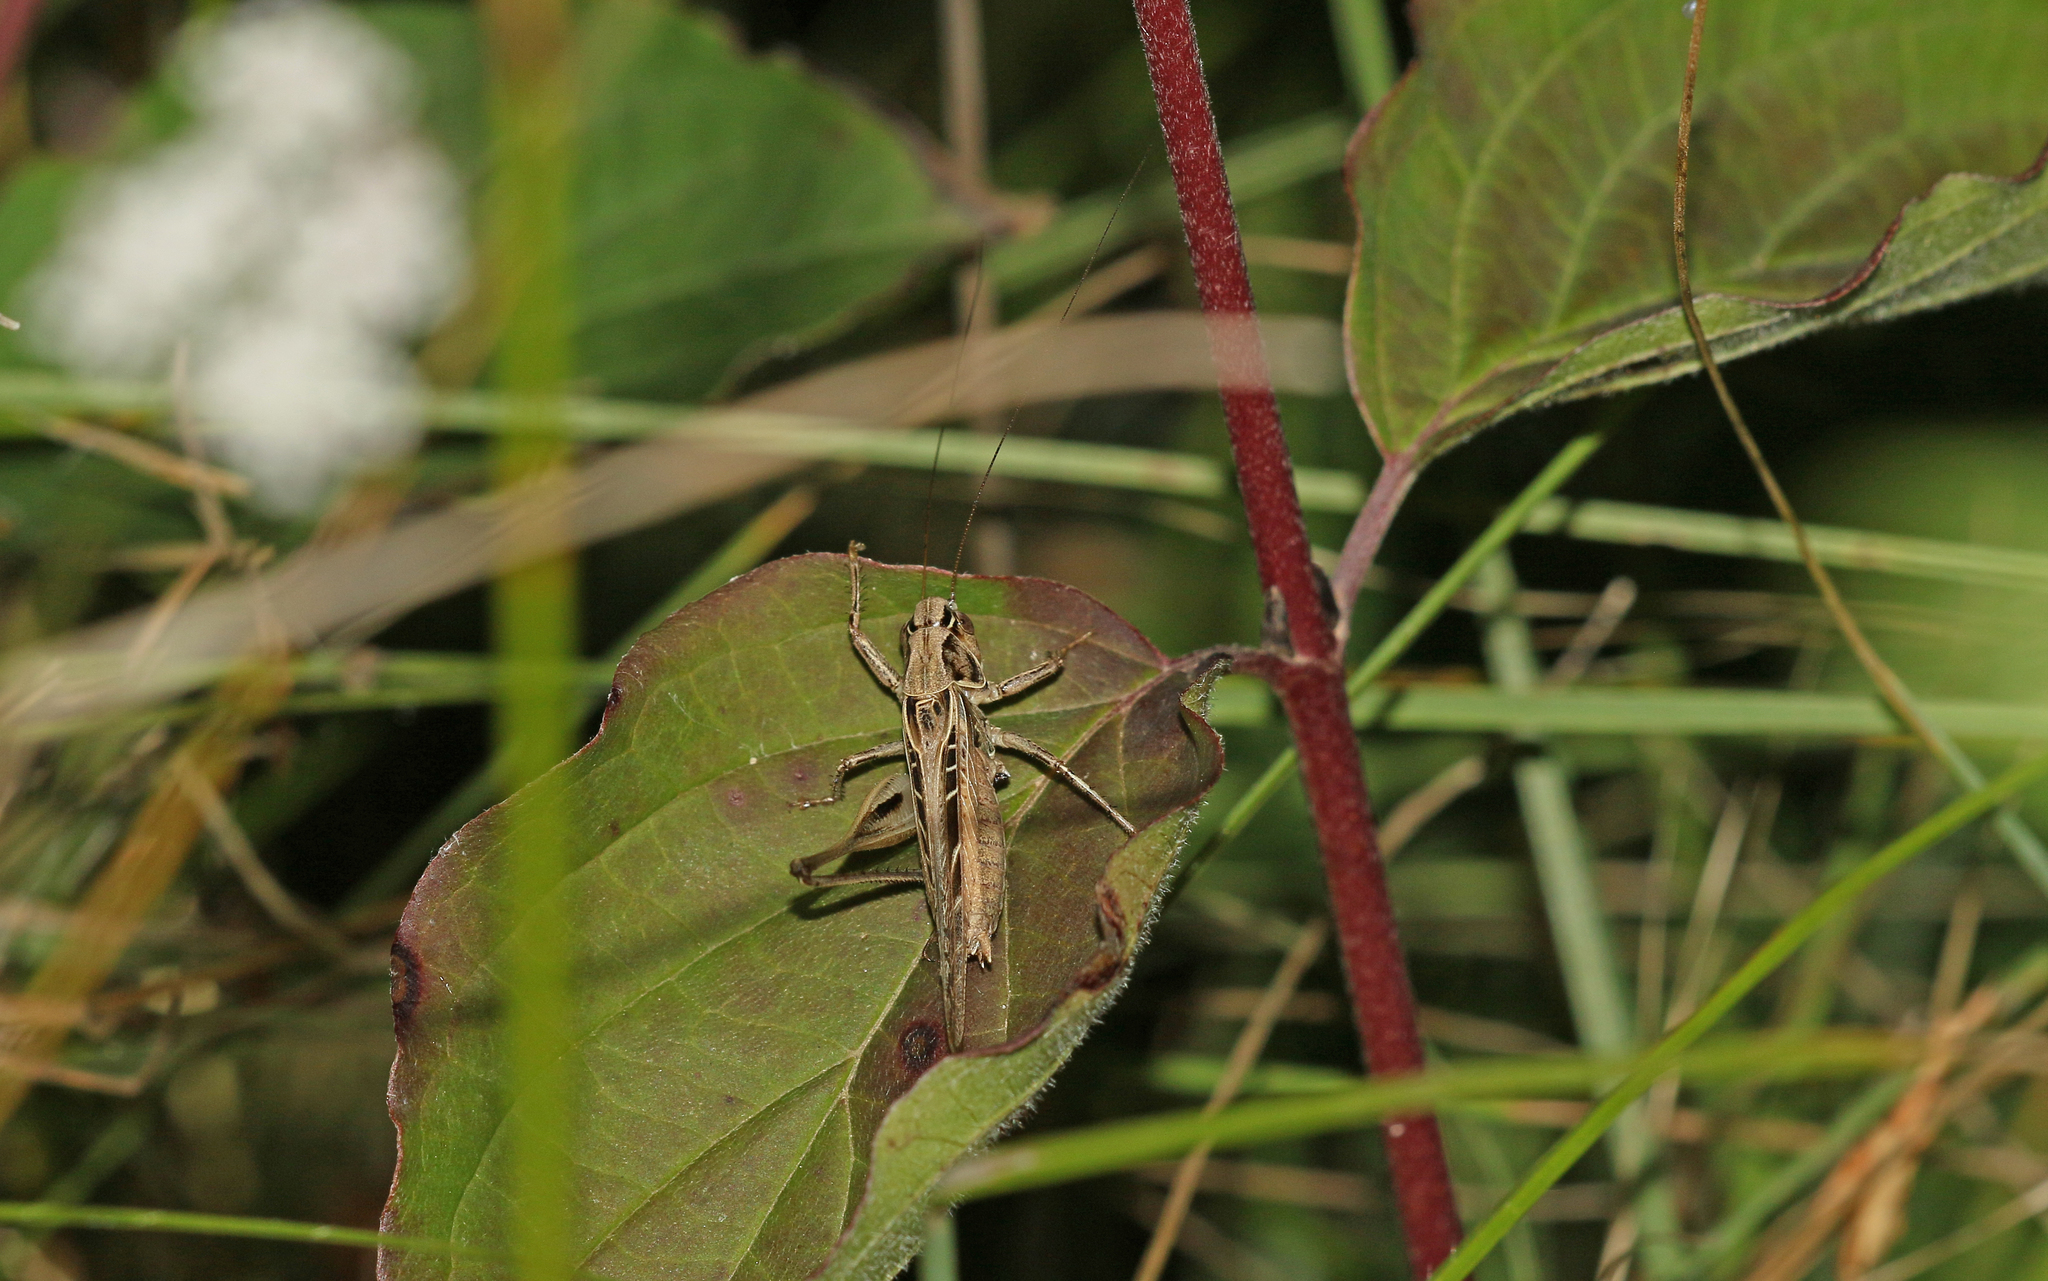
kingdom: Animalia
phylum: Arthropoda
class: Insecta
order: Orthoptera
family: Tettigoniidae
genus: Tessellana
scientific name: Tessellana tessellata
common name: Grasshopper
